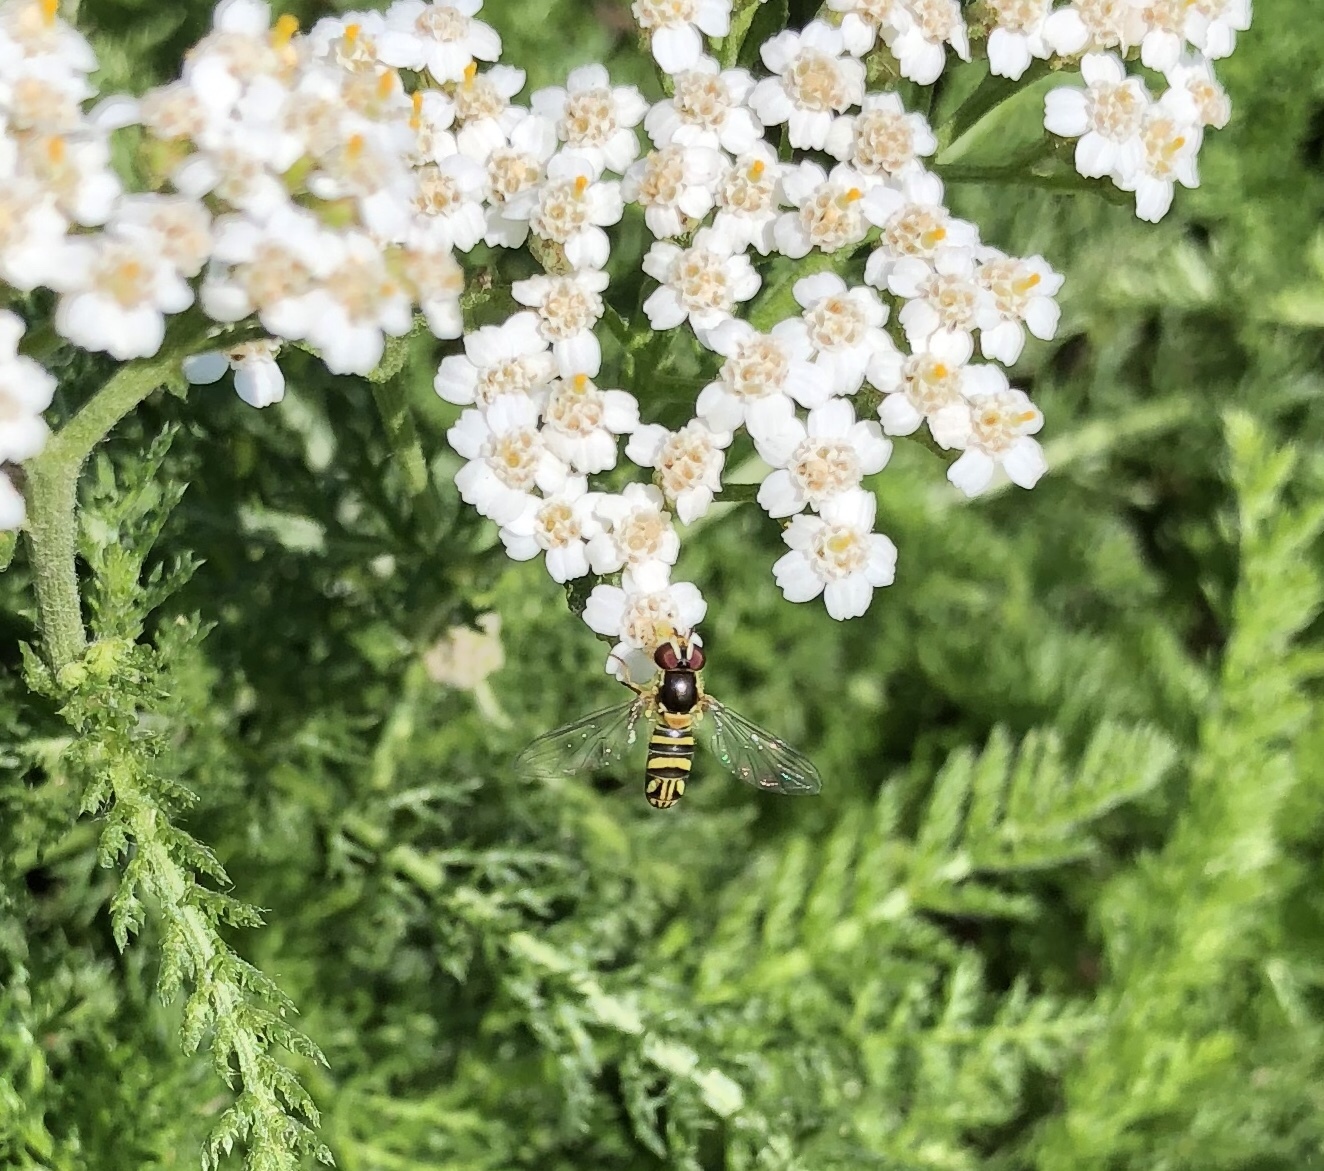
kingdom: Animalia
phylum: Arthropoda
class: Insecta
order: Diptera
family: Syrphidae
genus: Allograpta
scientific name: Allograpta obliqua
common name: Common oblique syrphid
